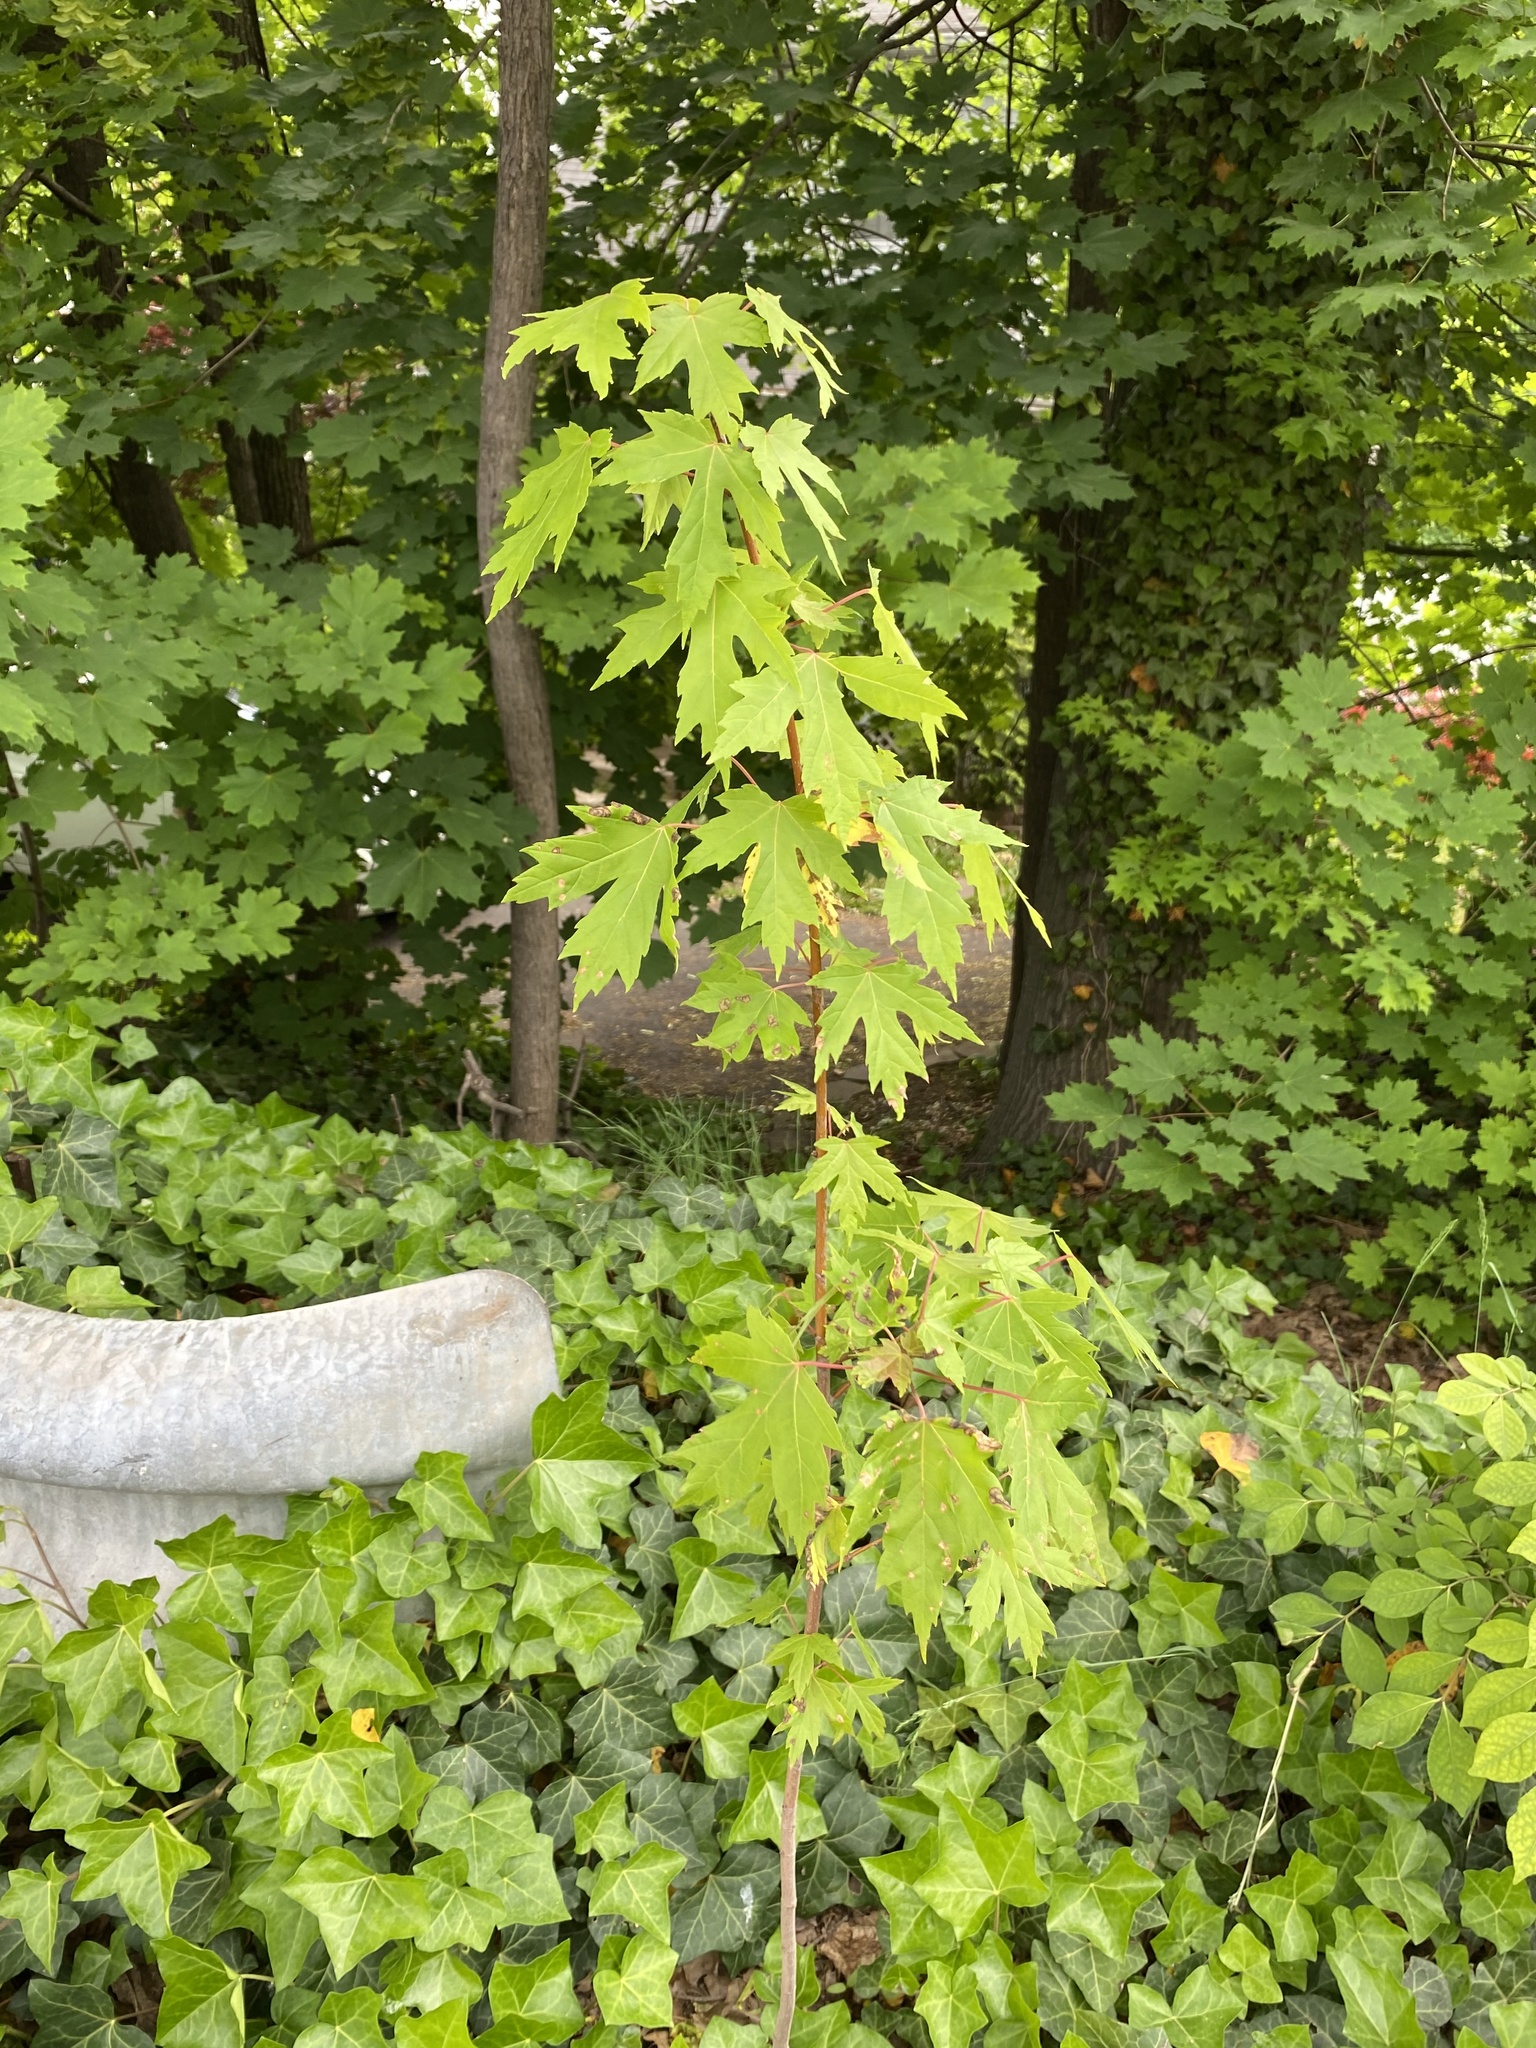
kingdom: Plantae
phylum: Tracheophyta
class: Magnoliopsida
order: Sapindales
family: Sapindaceae
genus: Acer
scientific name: Acer saccharinum
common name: Silver maple
